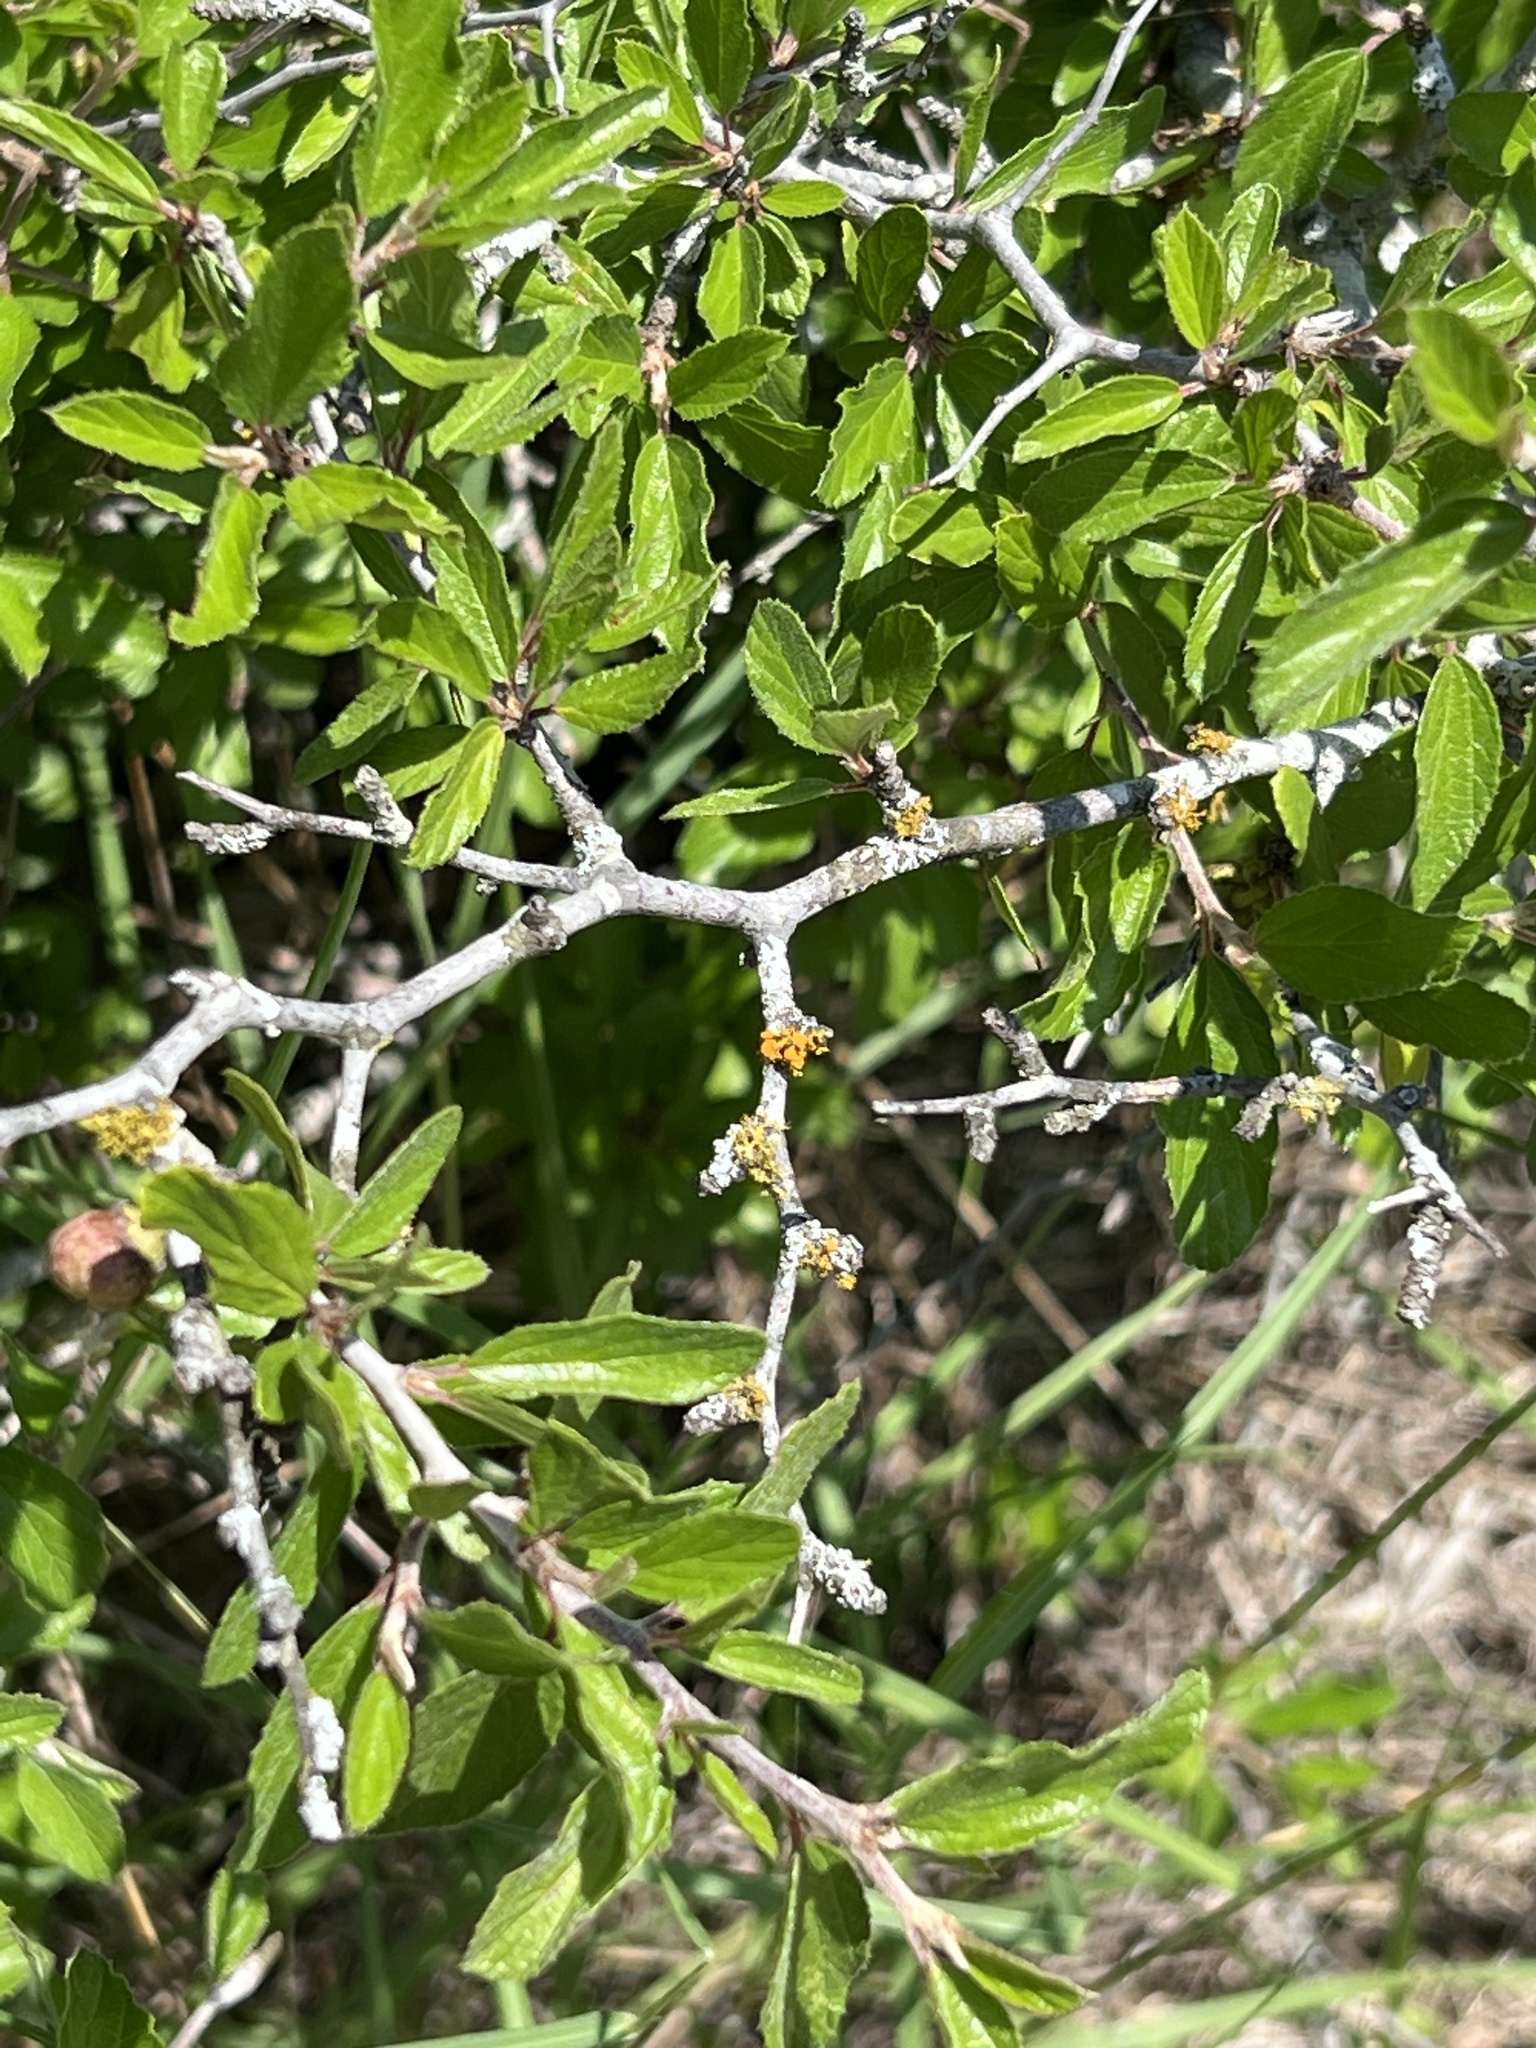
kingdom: Plantae
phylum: Tracheophyta
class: Magnoliopsida
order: Rosales
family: Rhamnaceae
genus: Colubrina
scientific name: Colubrina texensis
